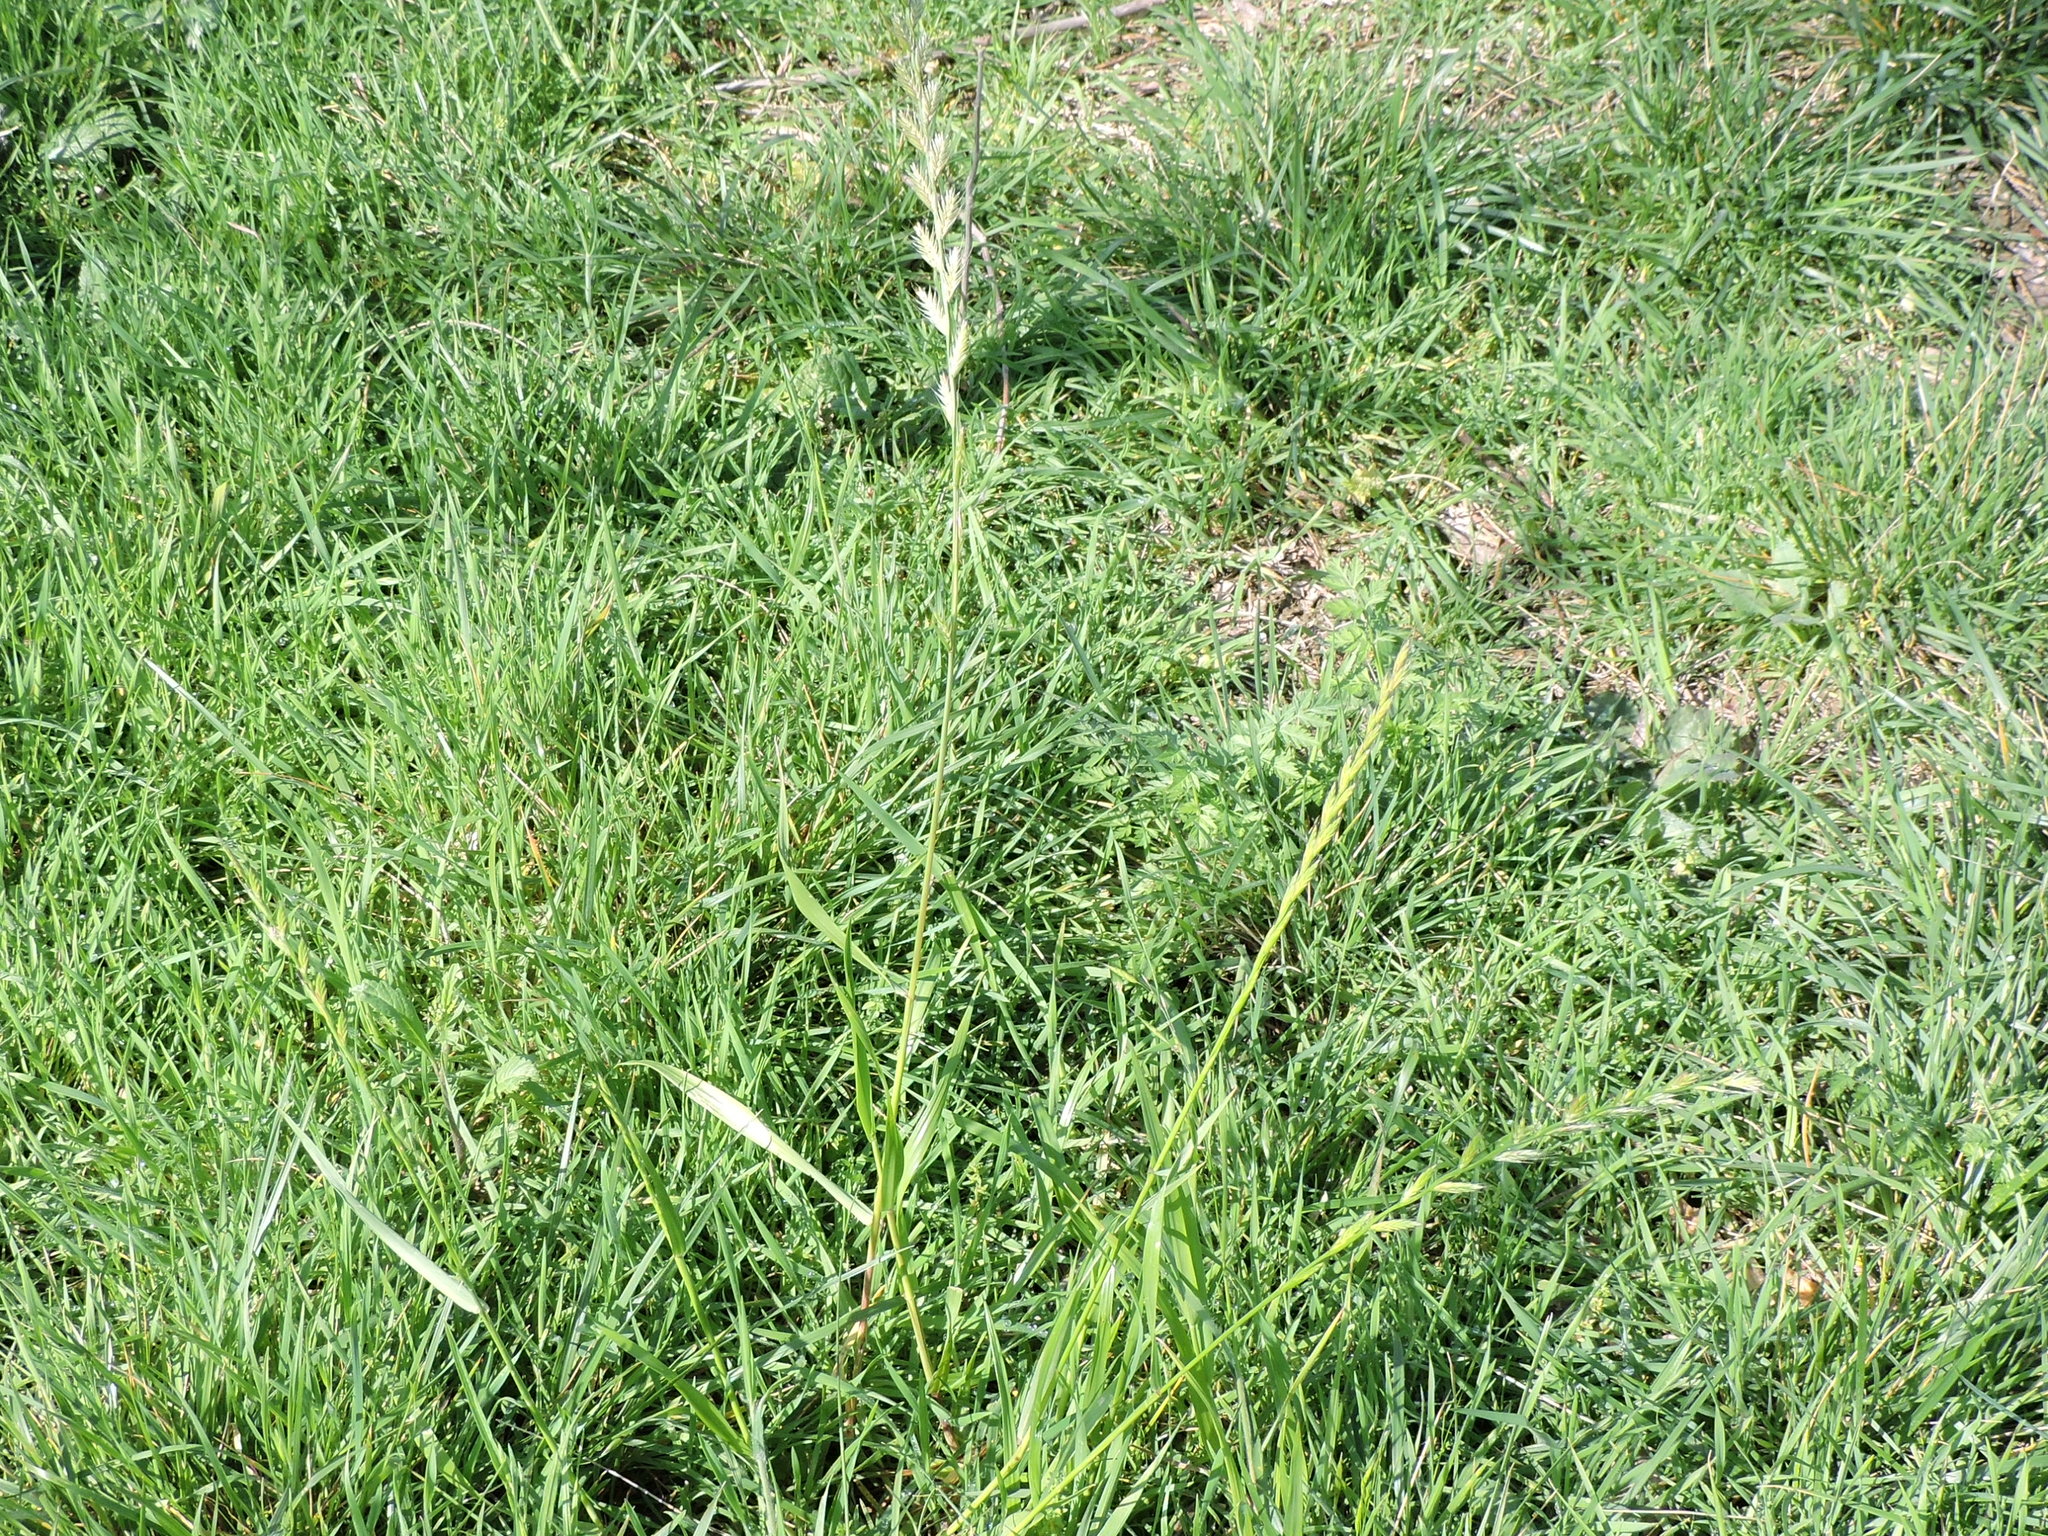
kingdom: Plantae
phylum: Tracheophyta
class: Liliopsida
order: Poales
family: Poaceae
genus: Lolium
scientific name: Lolium perenne
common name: Perennial ryegrass
